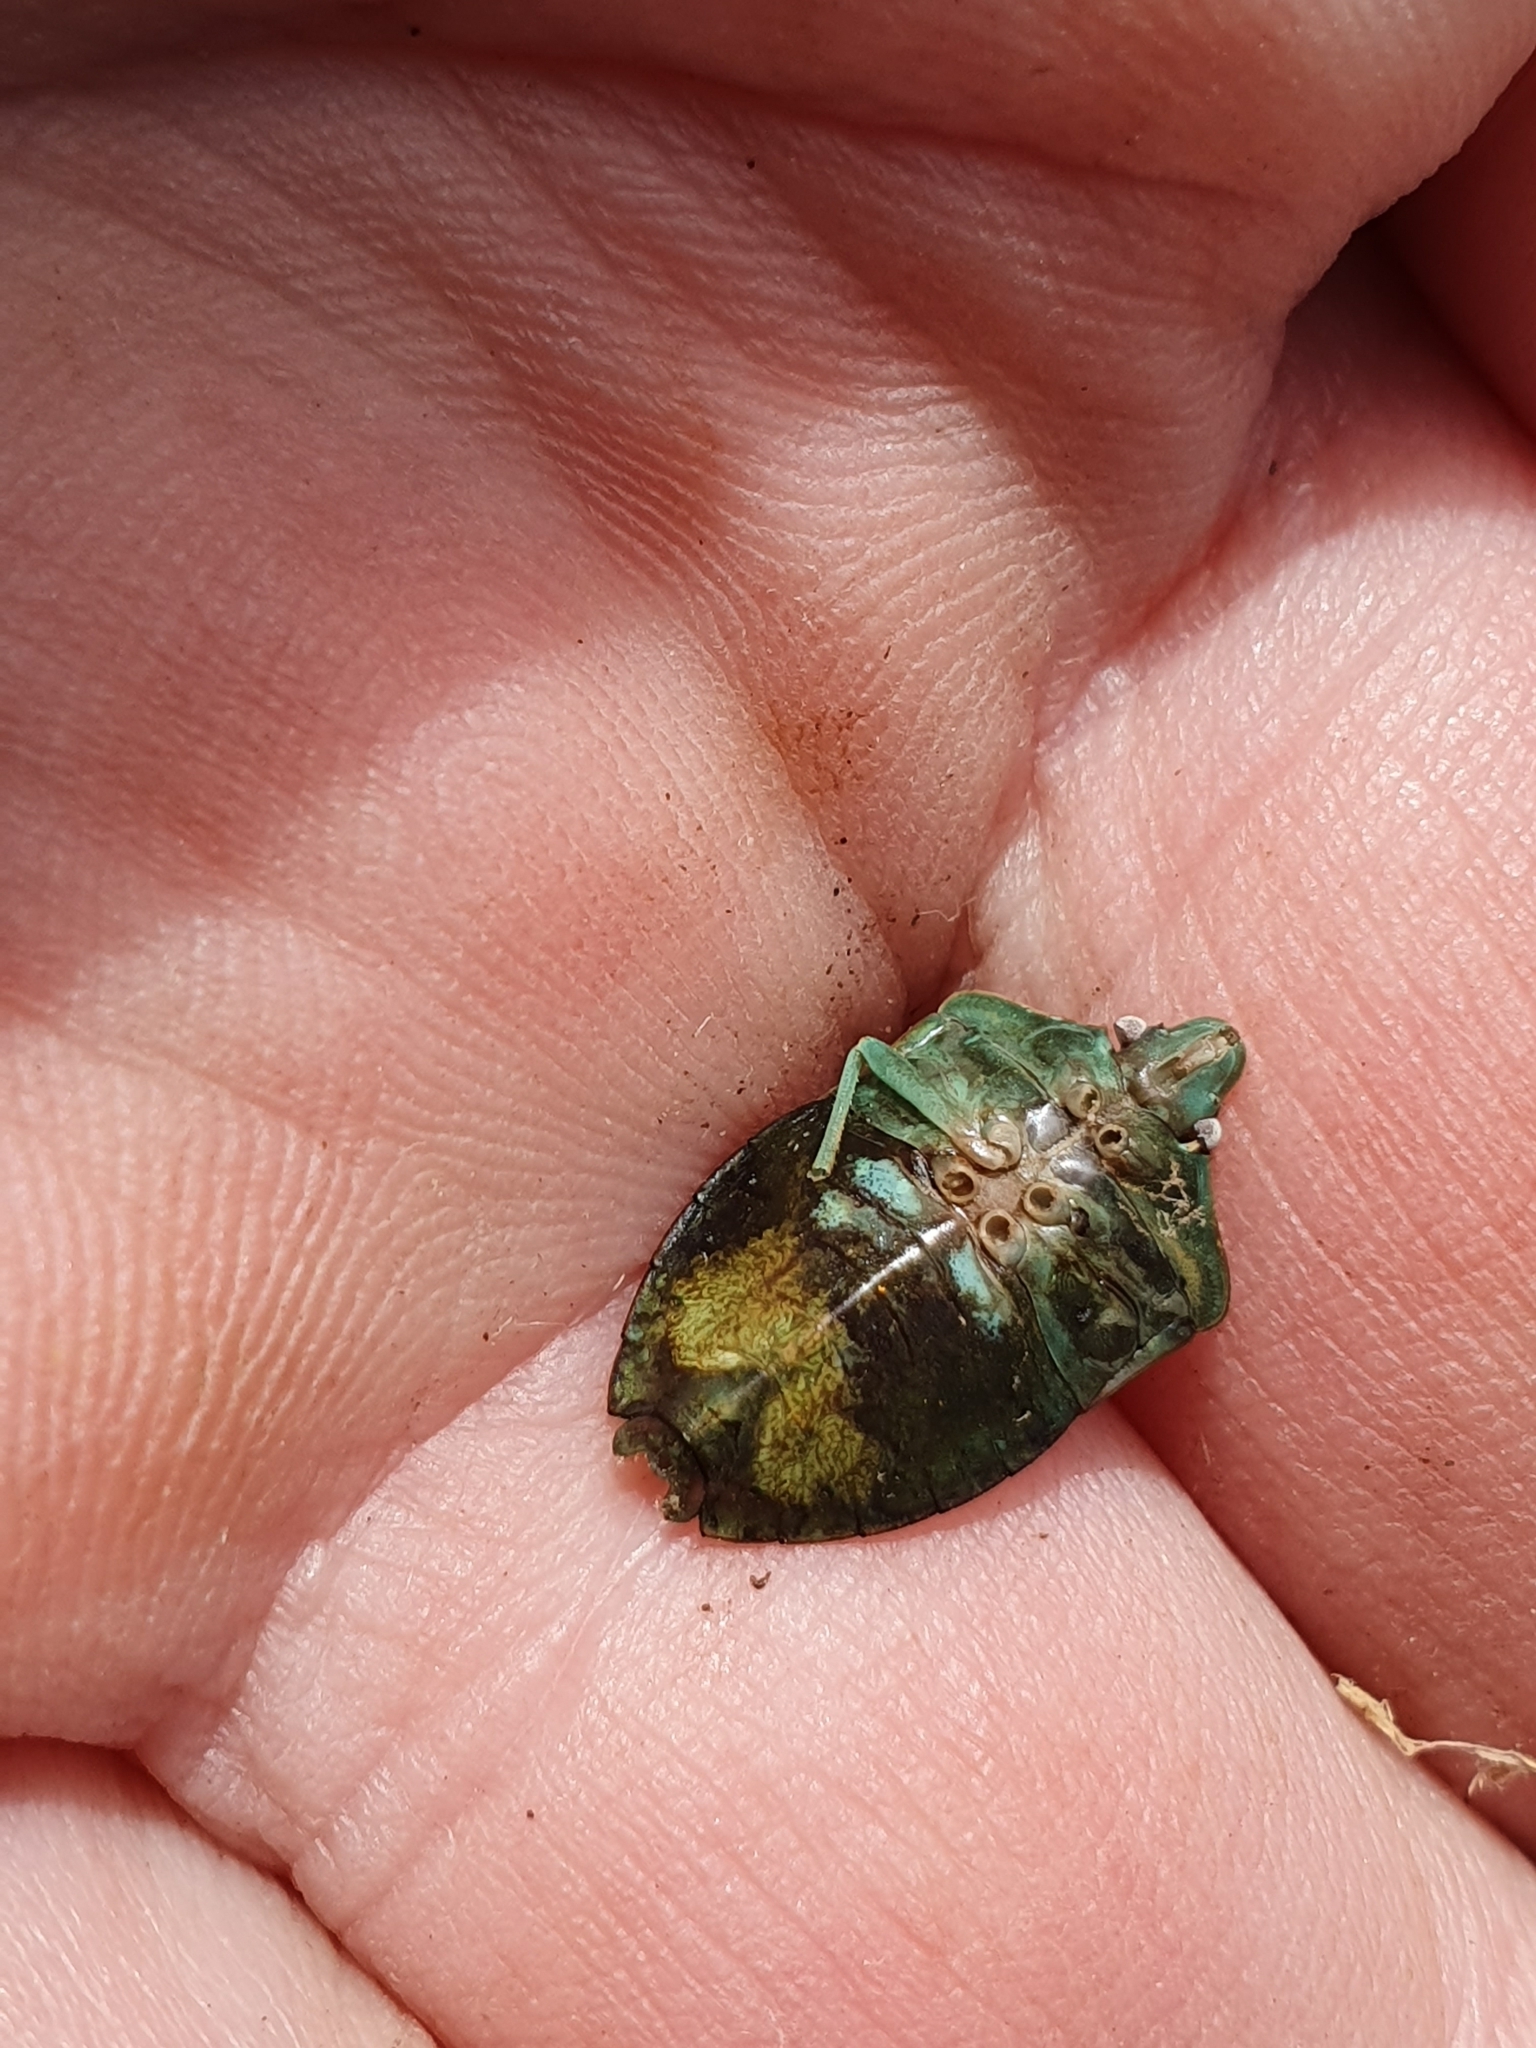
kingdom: Animalia
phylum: Arthropoda
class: Insecta
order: Hemiptera
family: Pentatomidae
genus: Nezara
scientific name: Nezara viridula
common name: Southern green stink bug
